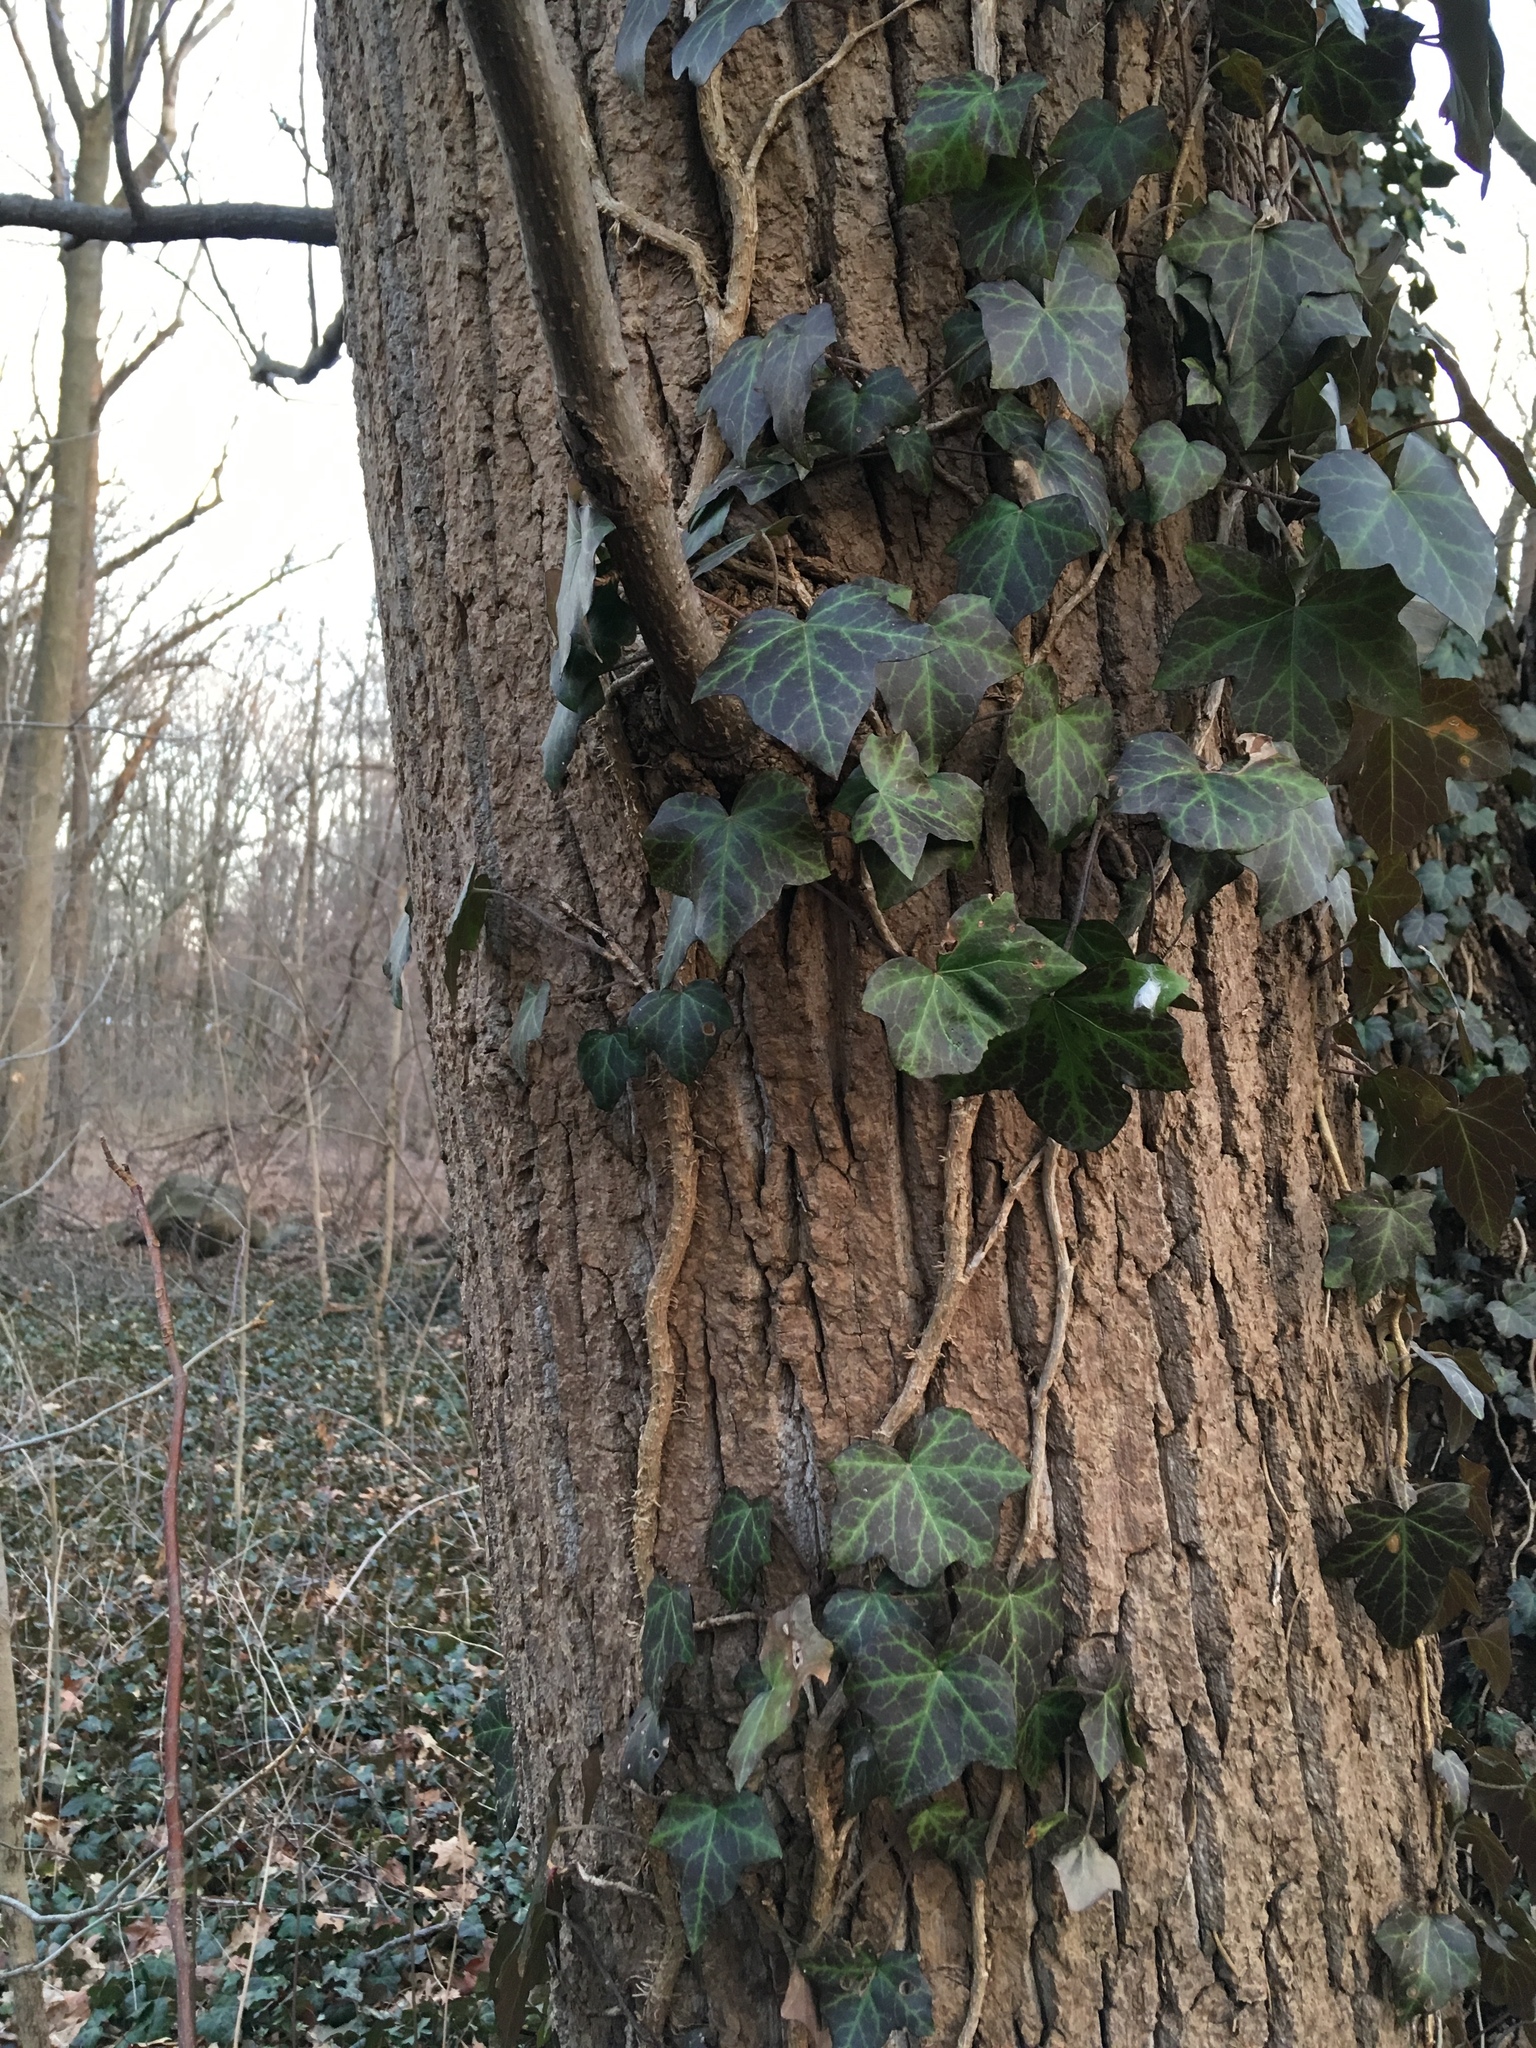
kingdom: Plantae
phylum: Tracheophyta
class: Magnoliopsida
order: Apiales
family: Araliaceae
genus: Hedera
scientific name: Hedera helix
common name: Ivy
